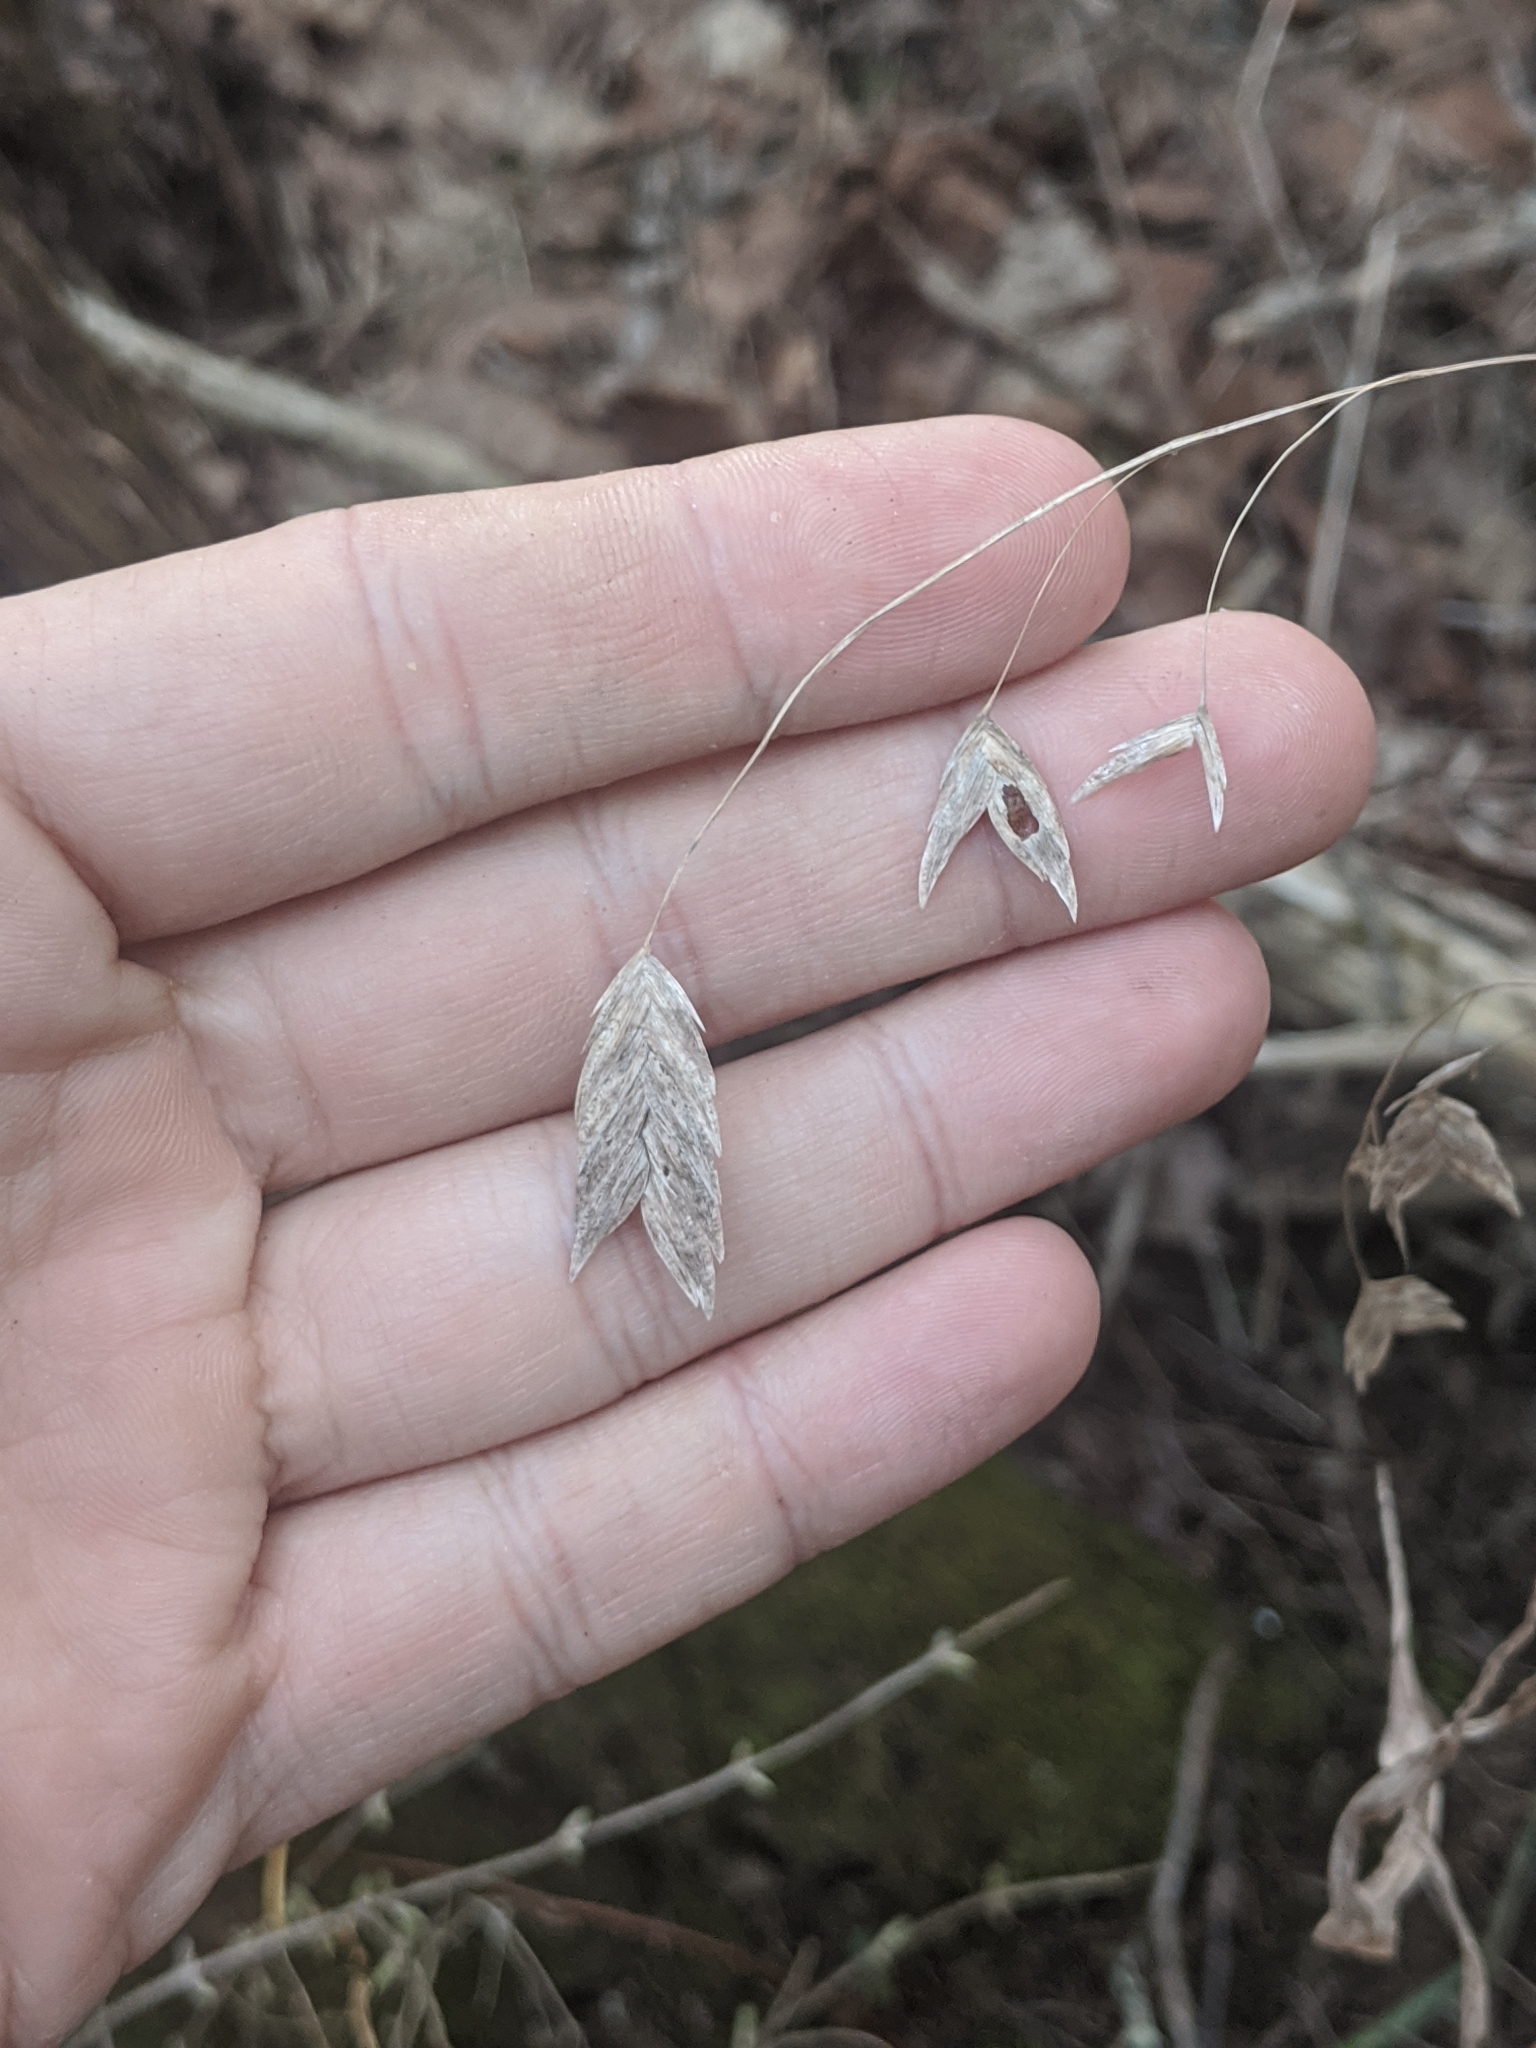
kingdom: Plantae
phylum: Tracheophyta
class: Liliopsida
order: Poales
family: Poaceae
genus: Chasmanthium
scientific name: Chasmanthium latifolium
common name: Broad-leaved chasmanthium
